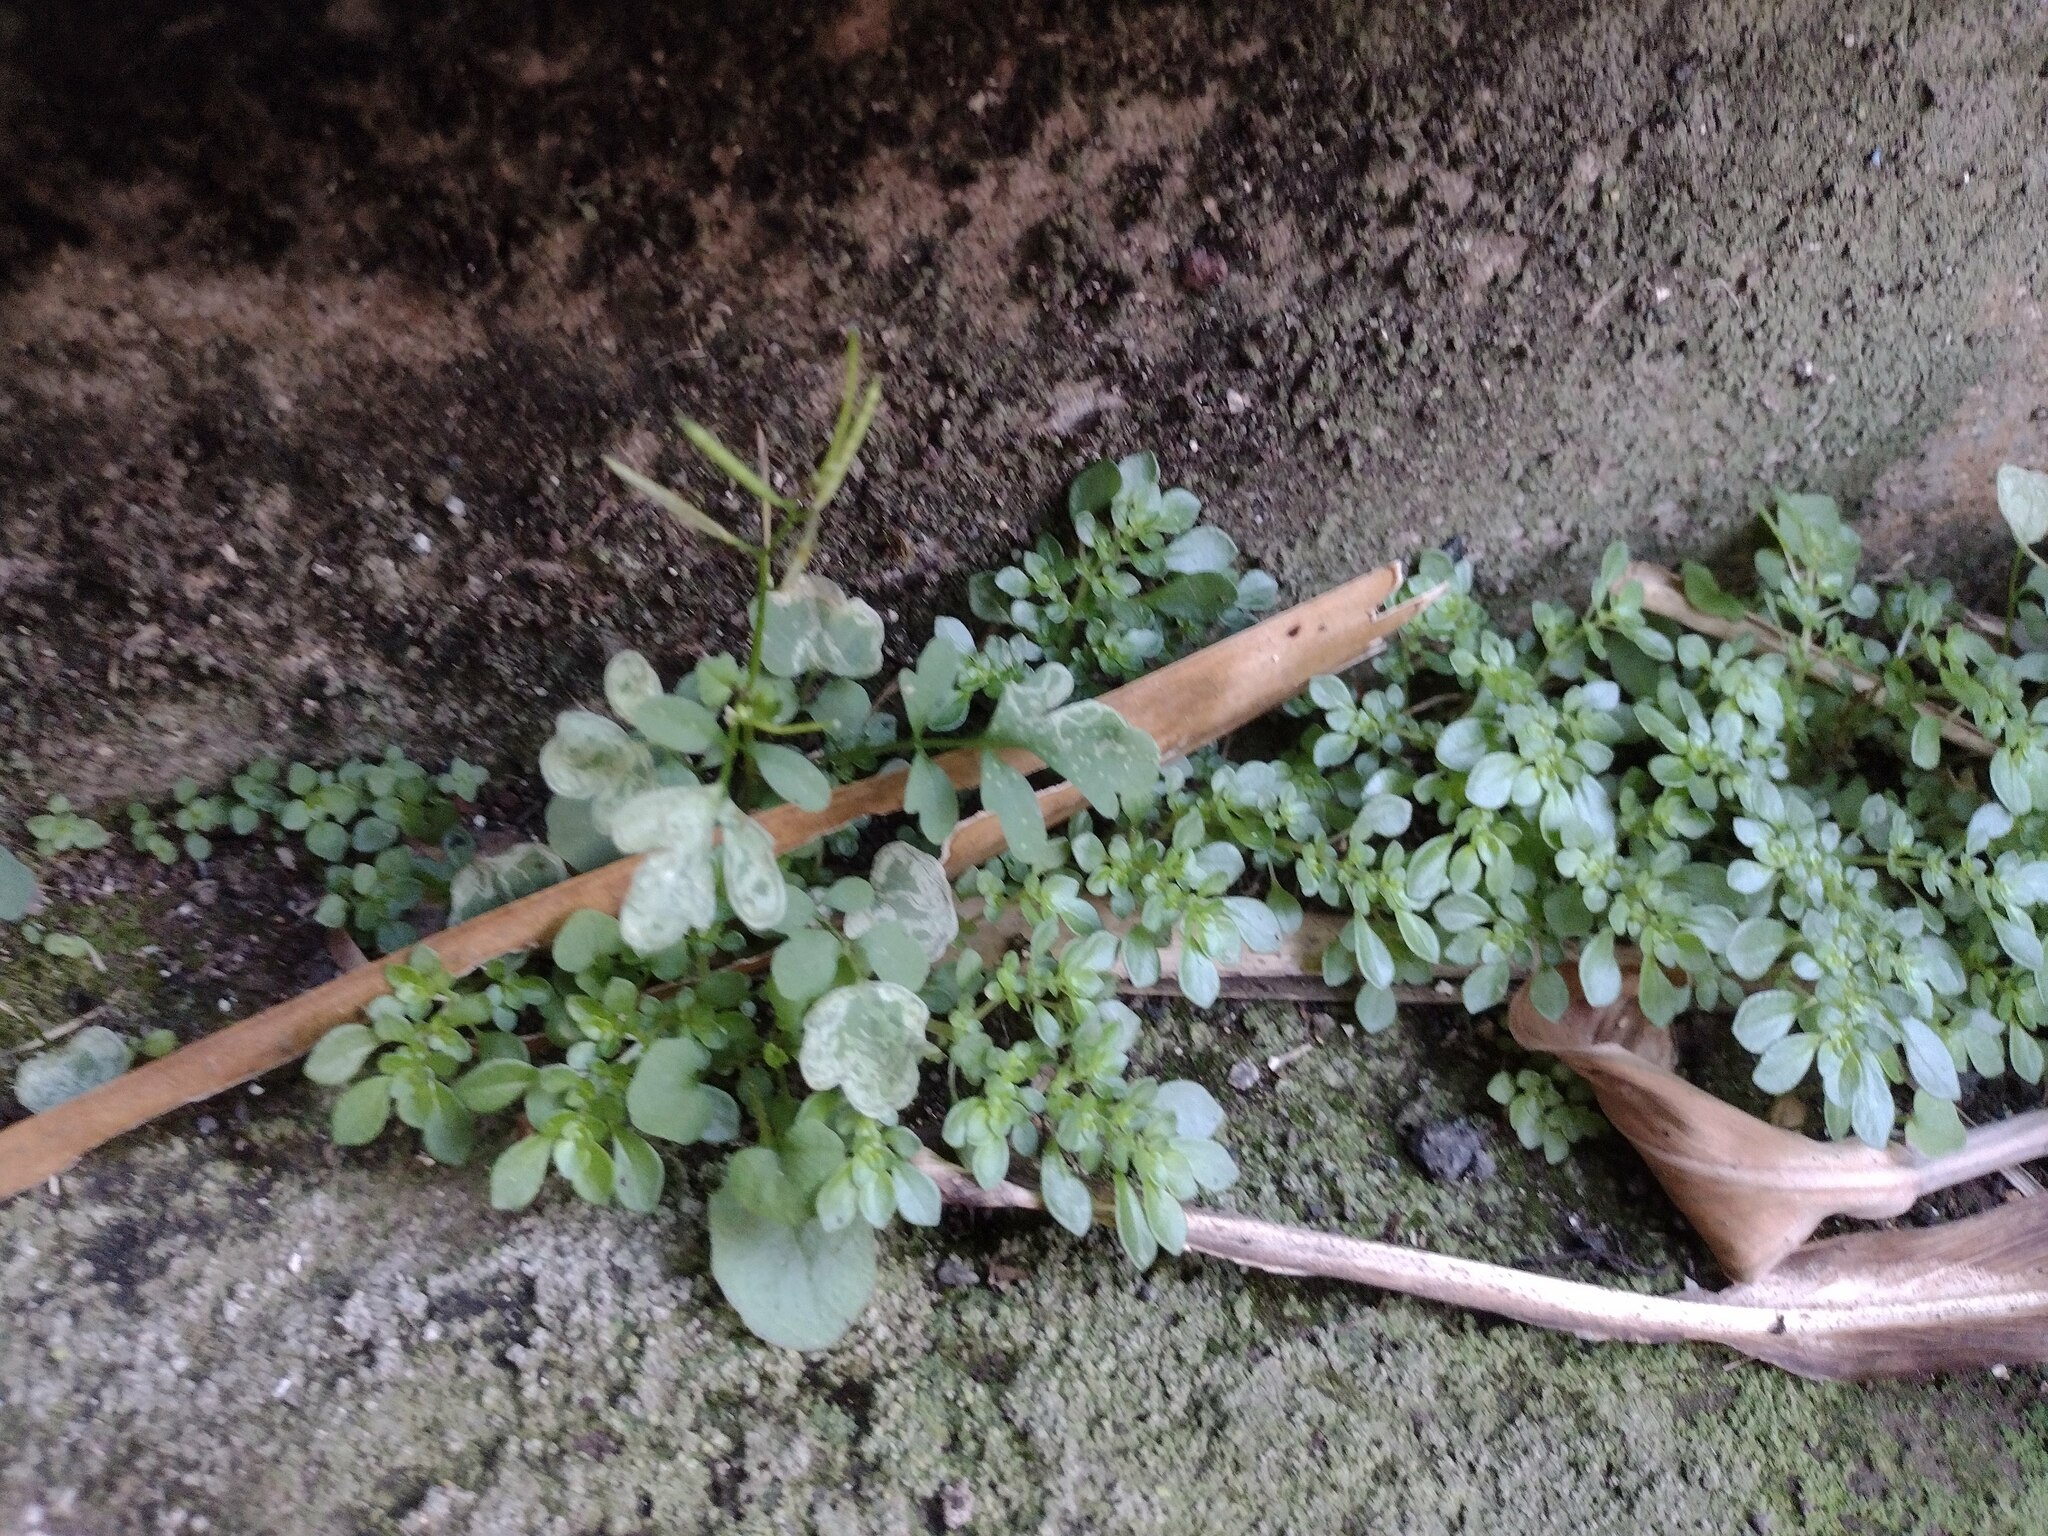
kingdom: Plantae
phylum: Tracheophyta
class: Magnoliopsida
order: Brassicales
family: Brassicaceae
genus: Cardamine
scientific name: Cardamine occulta
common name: Asian wavy bittercress
